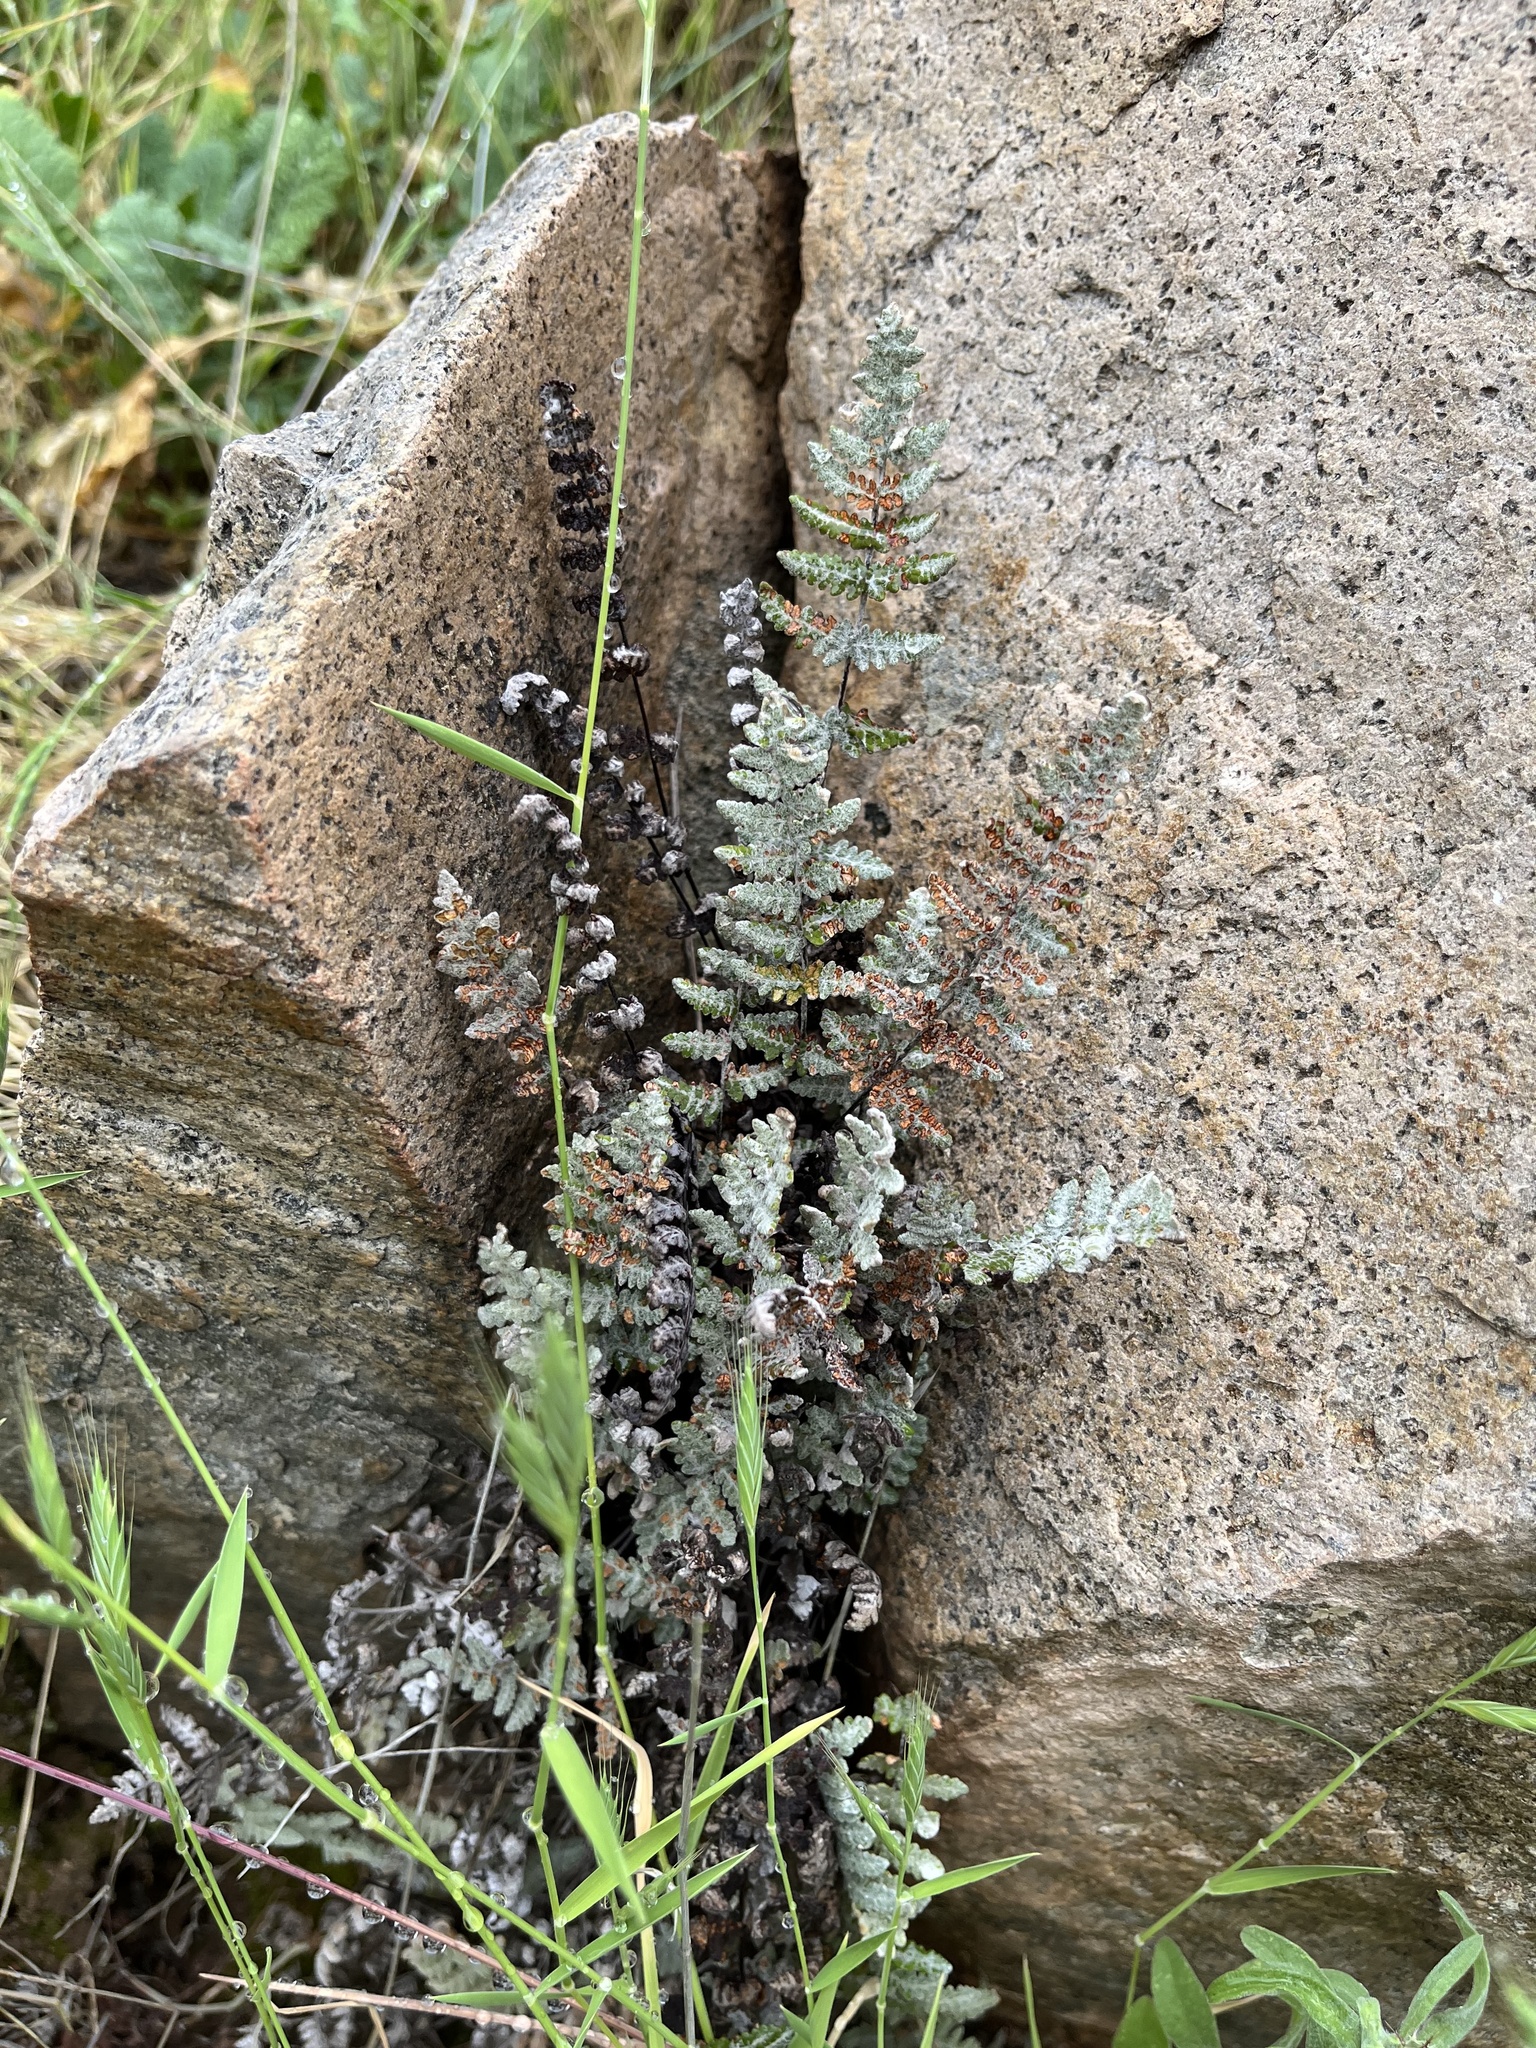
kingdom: Plantae
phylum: Tracheophyta
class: Polypodiopsida
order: Polypodiales
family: Pteridaceae
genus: Myriopteris
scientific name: Myriopteris newberryi
